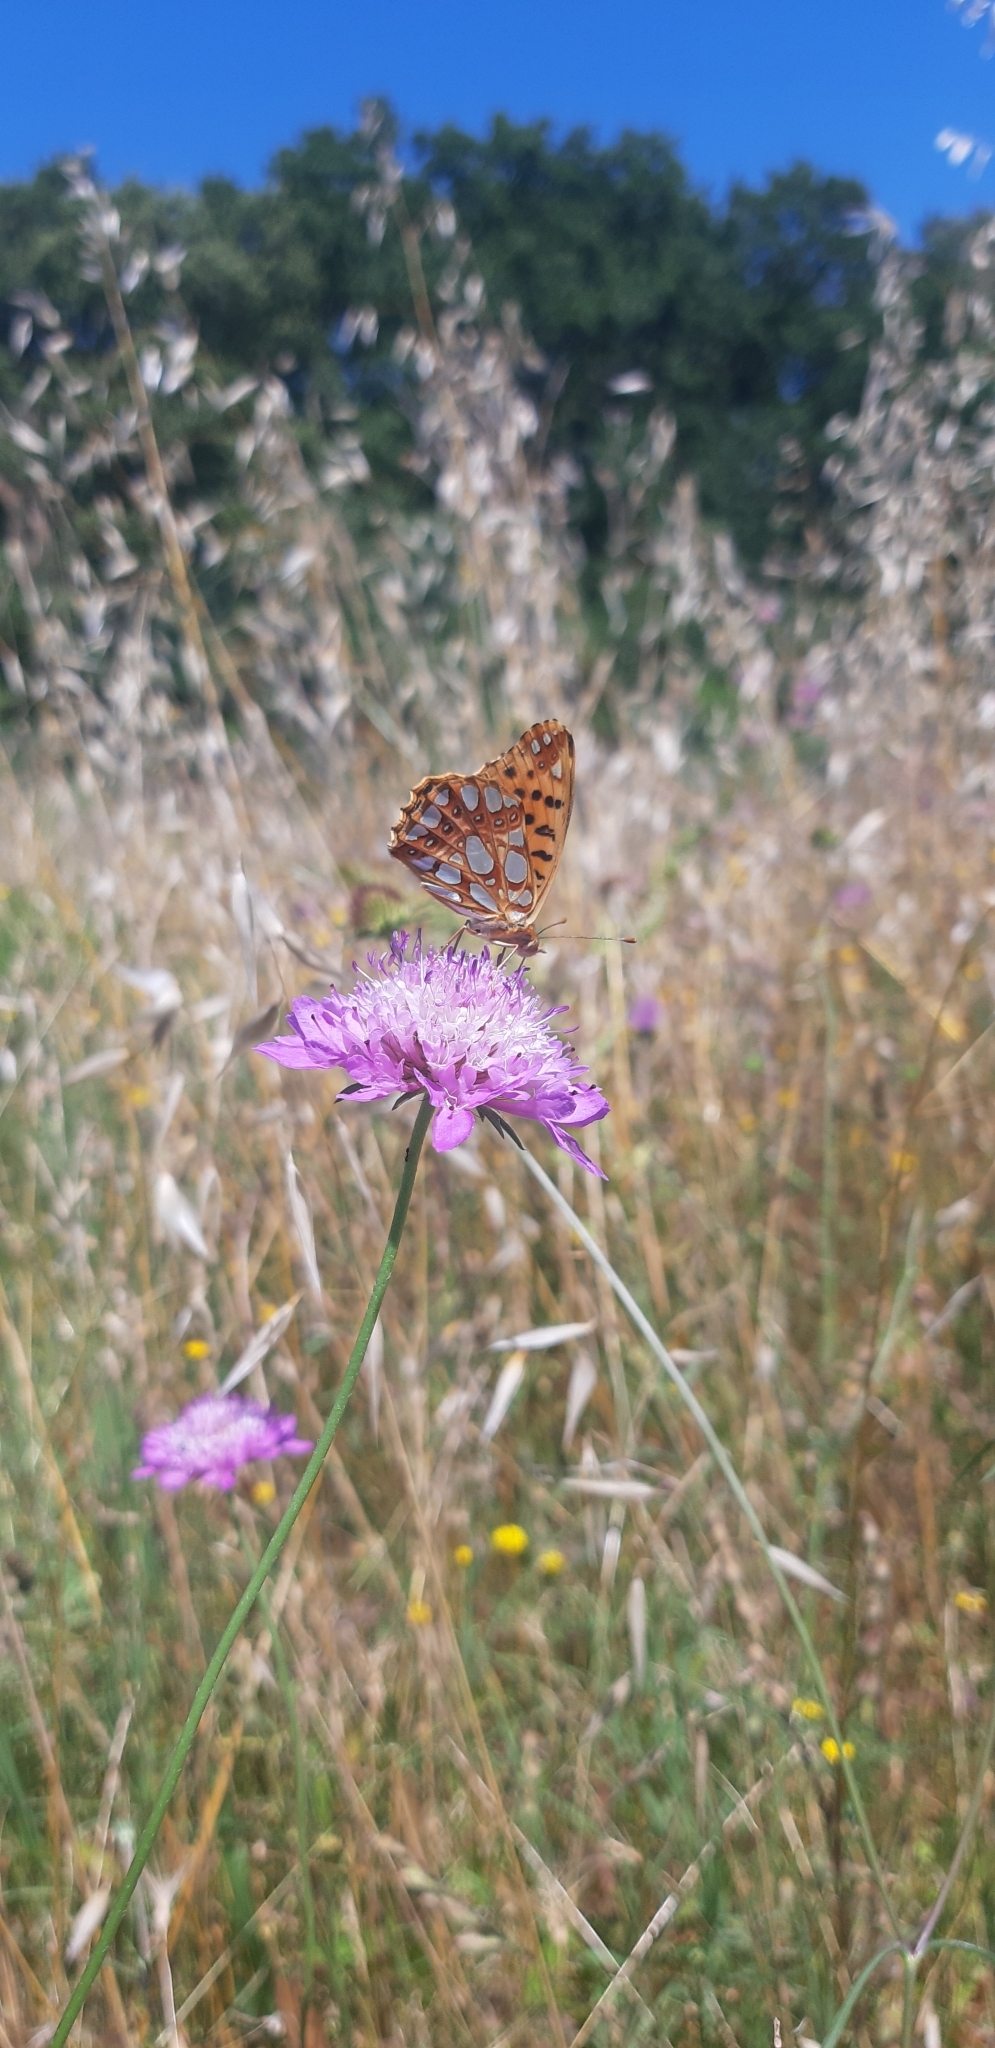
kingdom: Animalia
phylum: Arthropoda
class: Insecta
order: Lepidoptera
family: Nymphalidae
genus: Issoria
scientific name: Issoria lathonia
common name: Queen of spain fritillary
